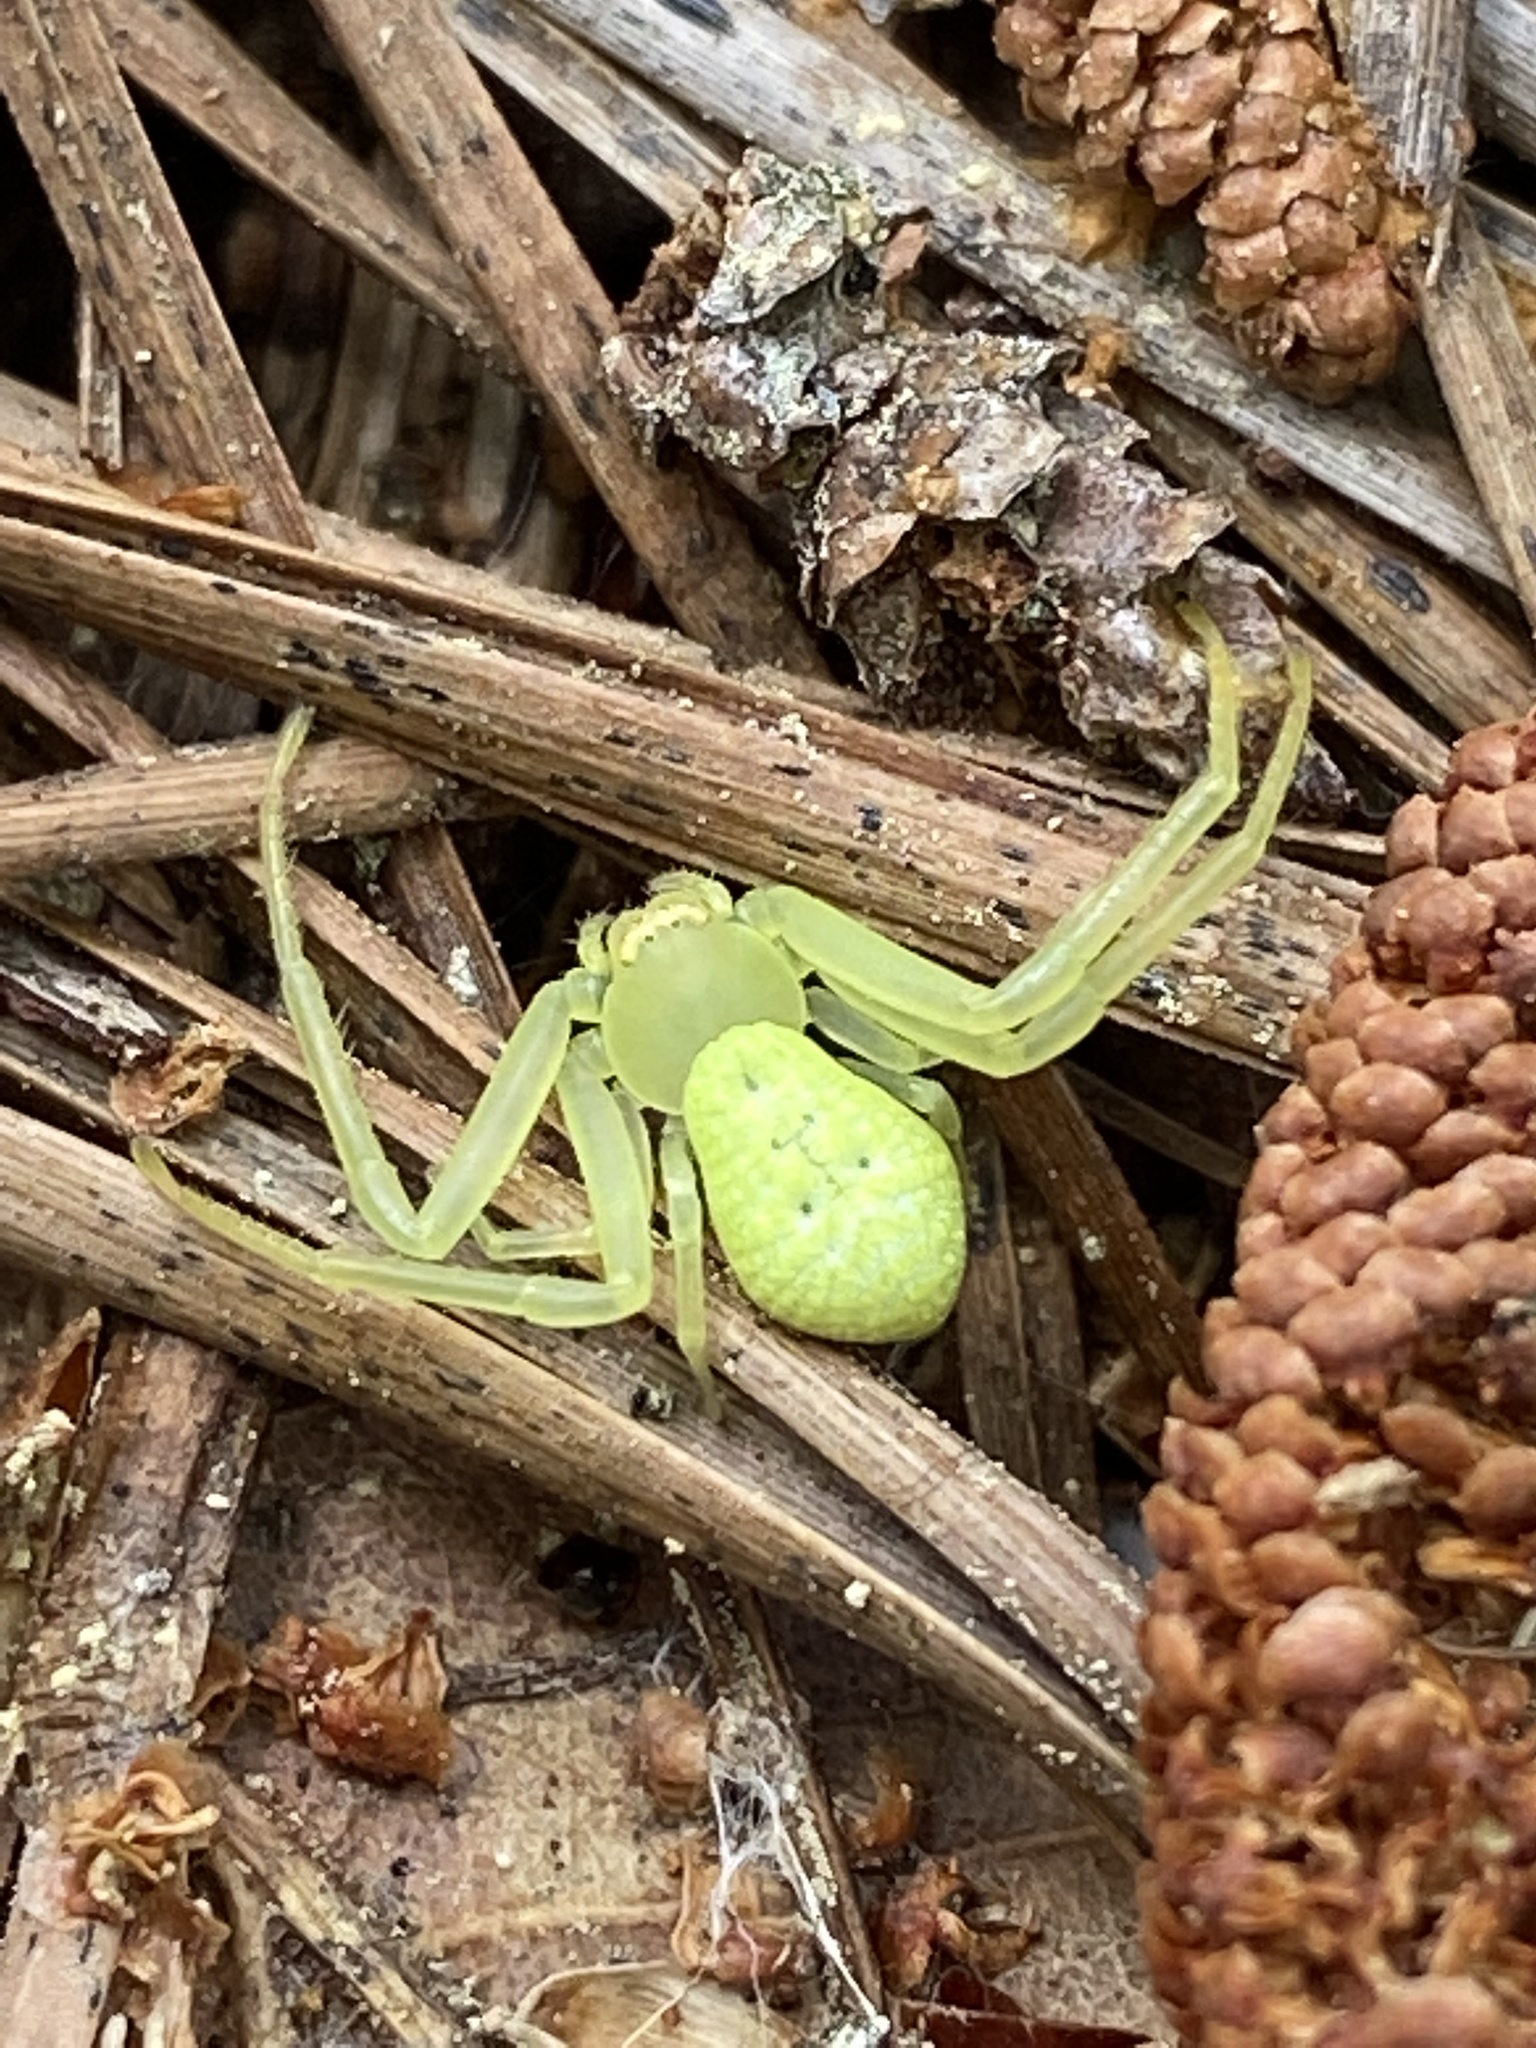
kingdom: Animalia
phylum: Arthropoda
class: Arachnida
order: Araneae
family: Thomisidae
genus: Misumessus
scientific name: Misumessus oblongus
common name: American green crab spider
